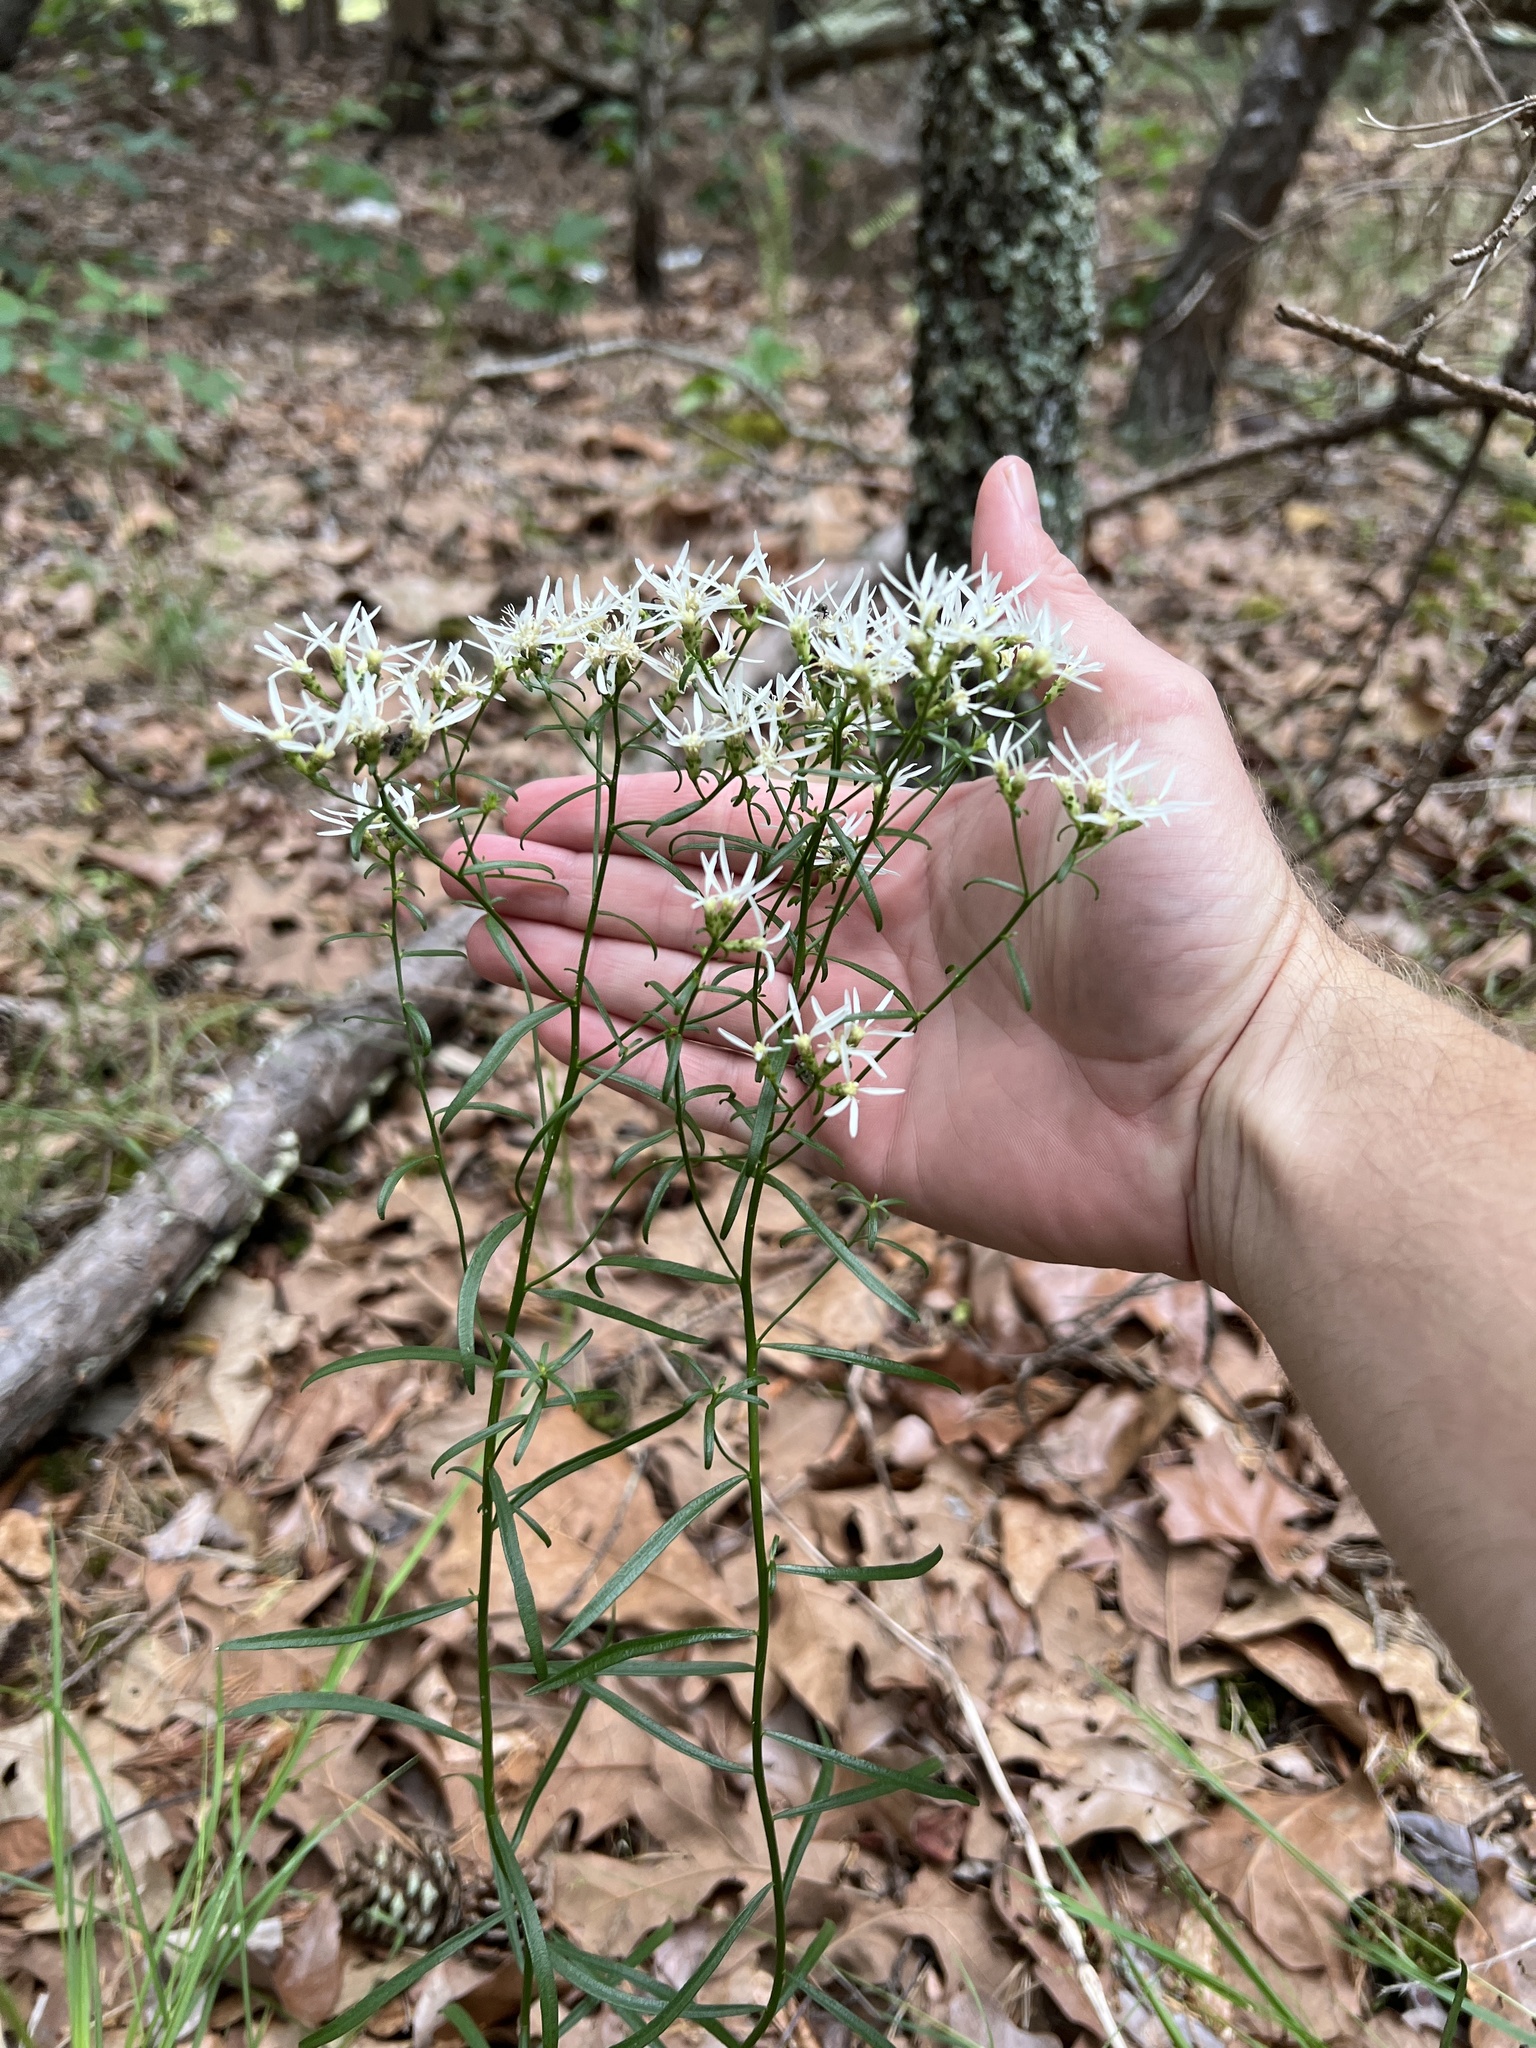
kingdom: Plantae
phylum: Tracheophyta
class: Magnoliopsida
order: Asterales
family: Asteraceae
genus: Sericocarpus
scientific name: Sericocarpus linifolius
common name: Narrow-leaf aster
